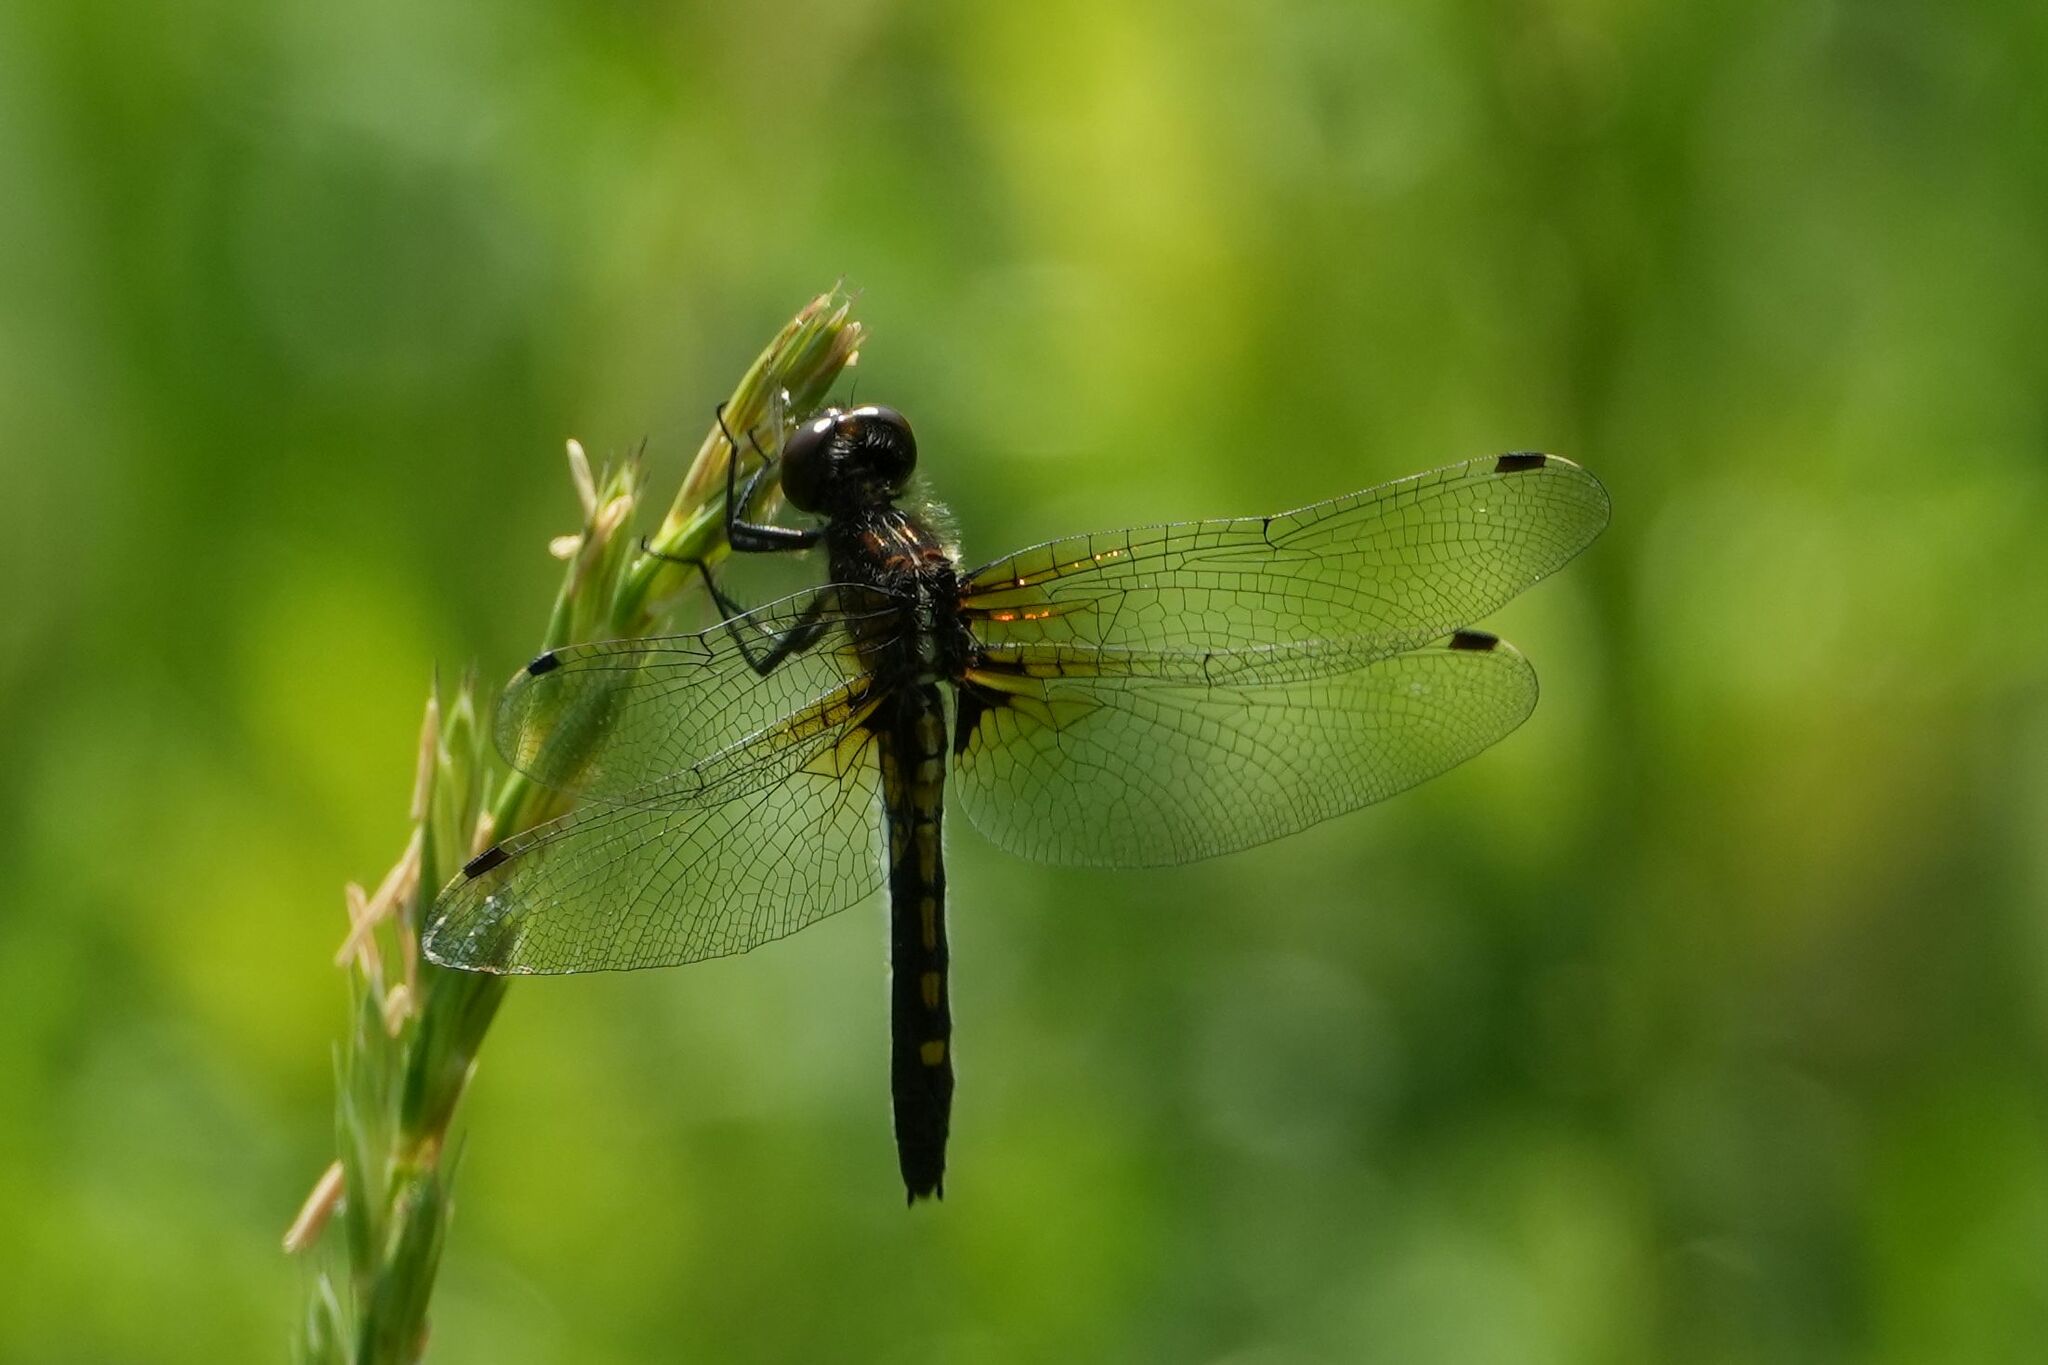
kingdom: Animalia
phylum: Arthropoda
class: Insecta
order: Odonata
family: Libellulidae
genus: Leucorrhinia
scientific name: Leucorrhinia intacta
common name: Dot-tailed whiteface
